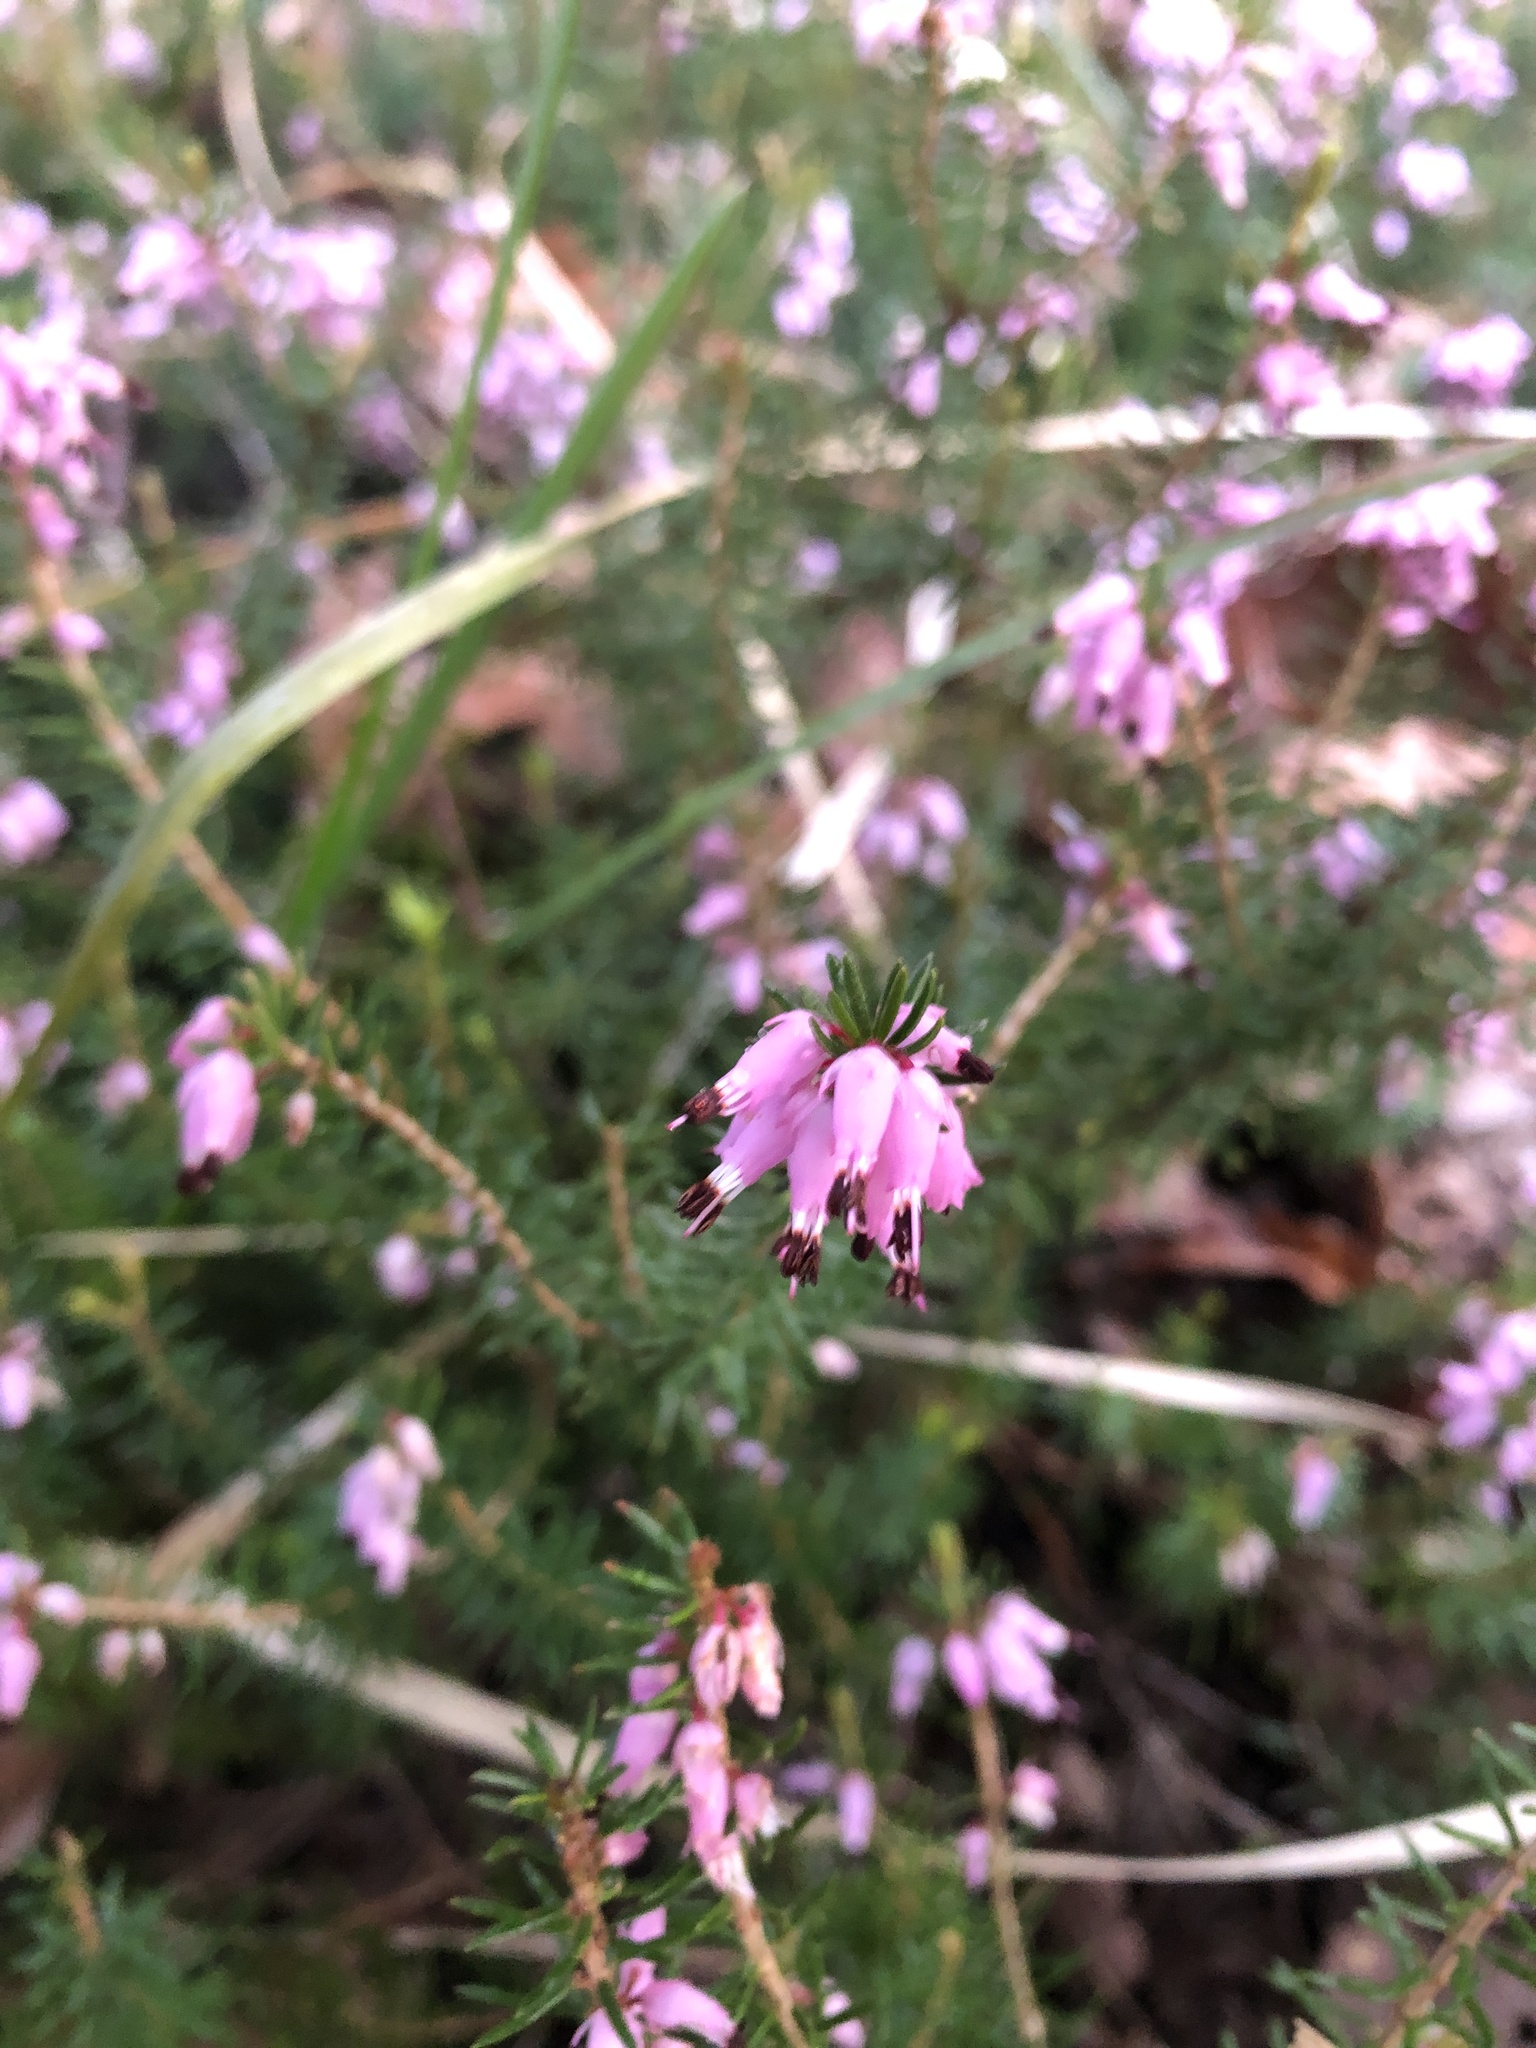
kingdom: Plantae
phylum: Tracheophyta
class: Magnoliopsida
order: Ericales
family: Ericaceae
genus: Erica
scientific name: Erica carnea
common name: Winter heath
